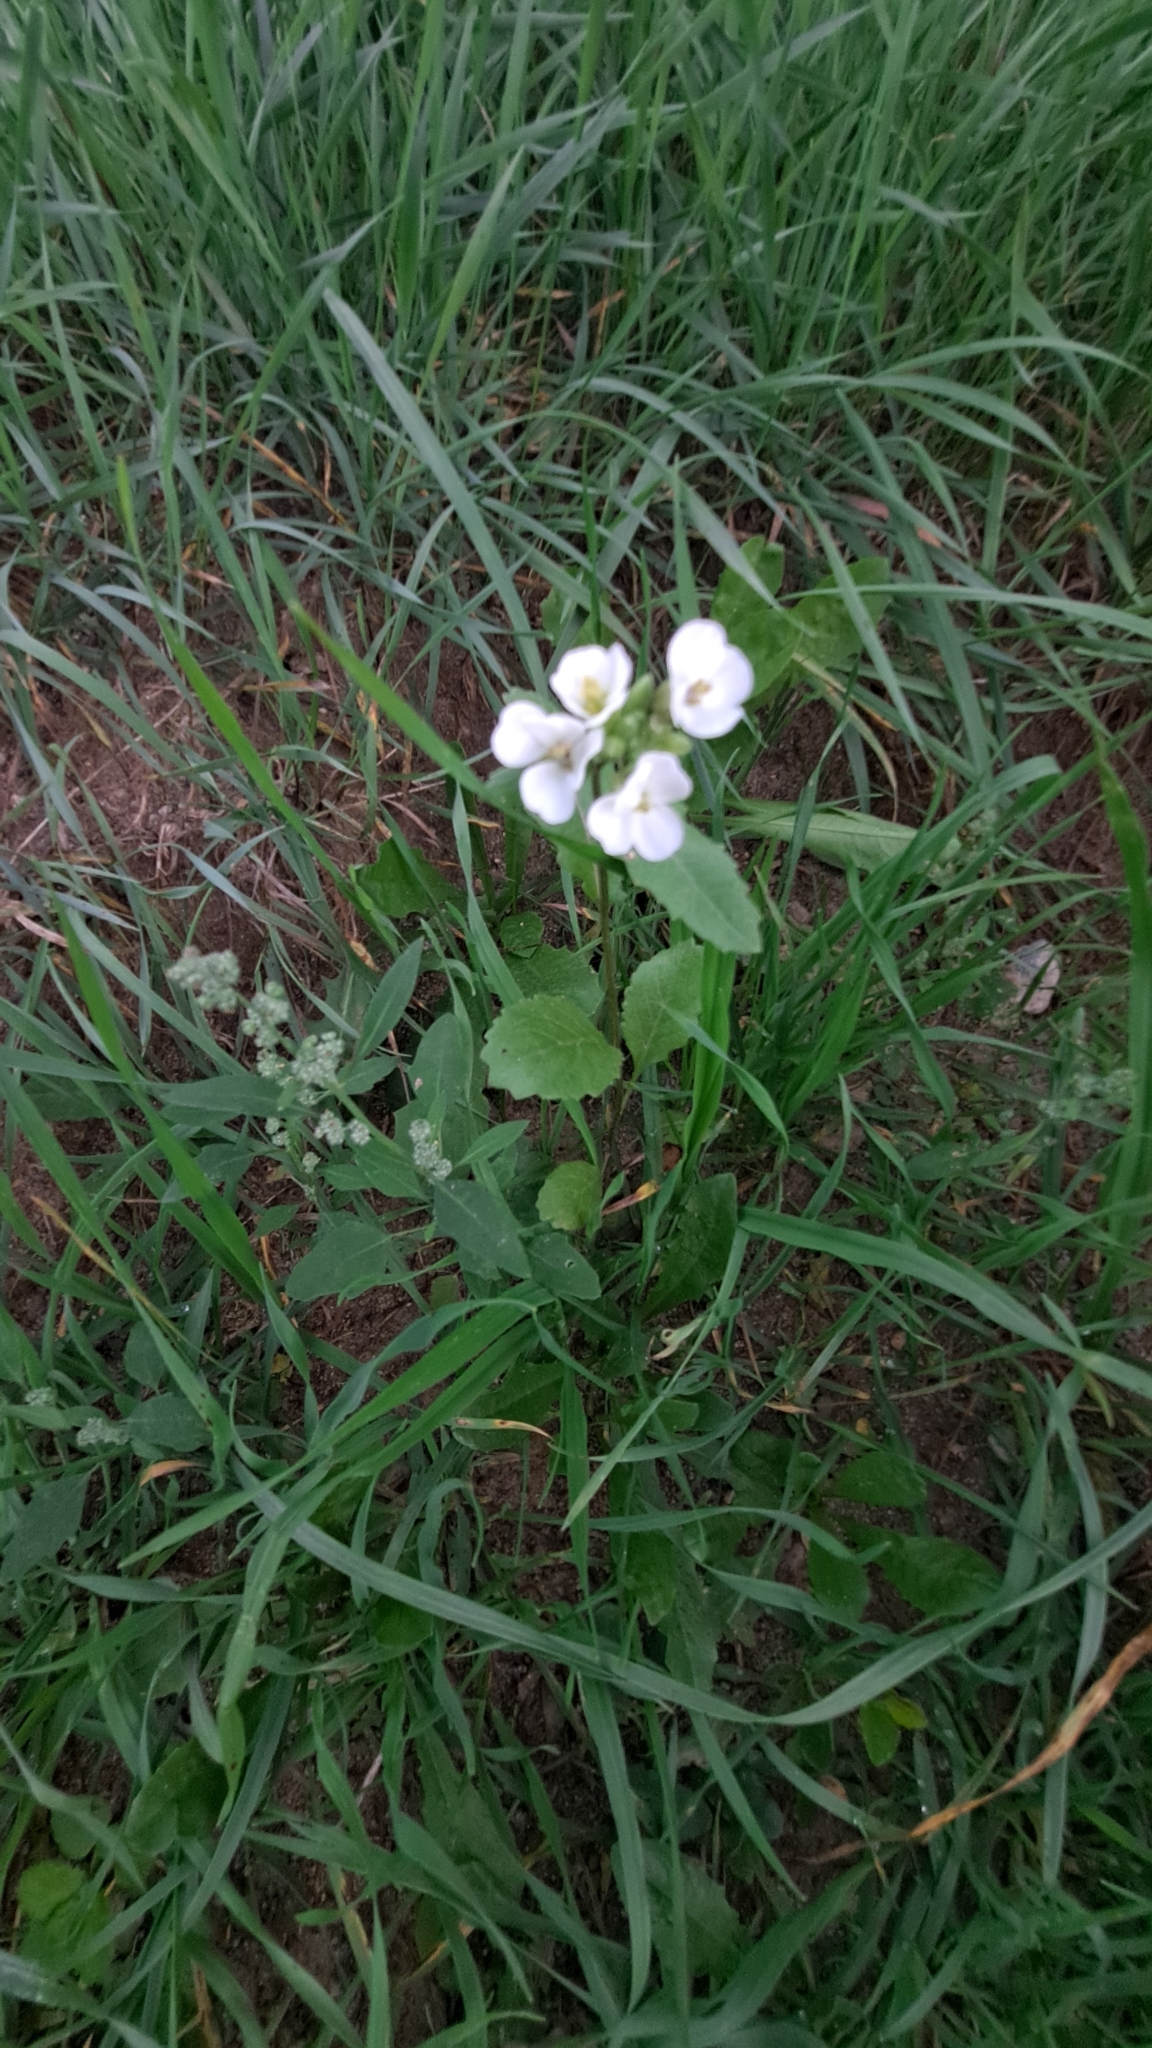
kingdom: Plantae
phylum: Tracheophyta
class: Magnoliopsida
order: Brassicales
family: Brassicaceae
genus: Diplotaxis
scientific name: Diplotaxis erucoides
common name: White rocket
